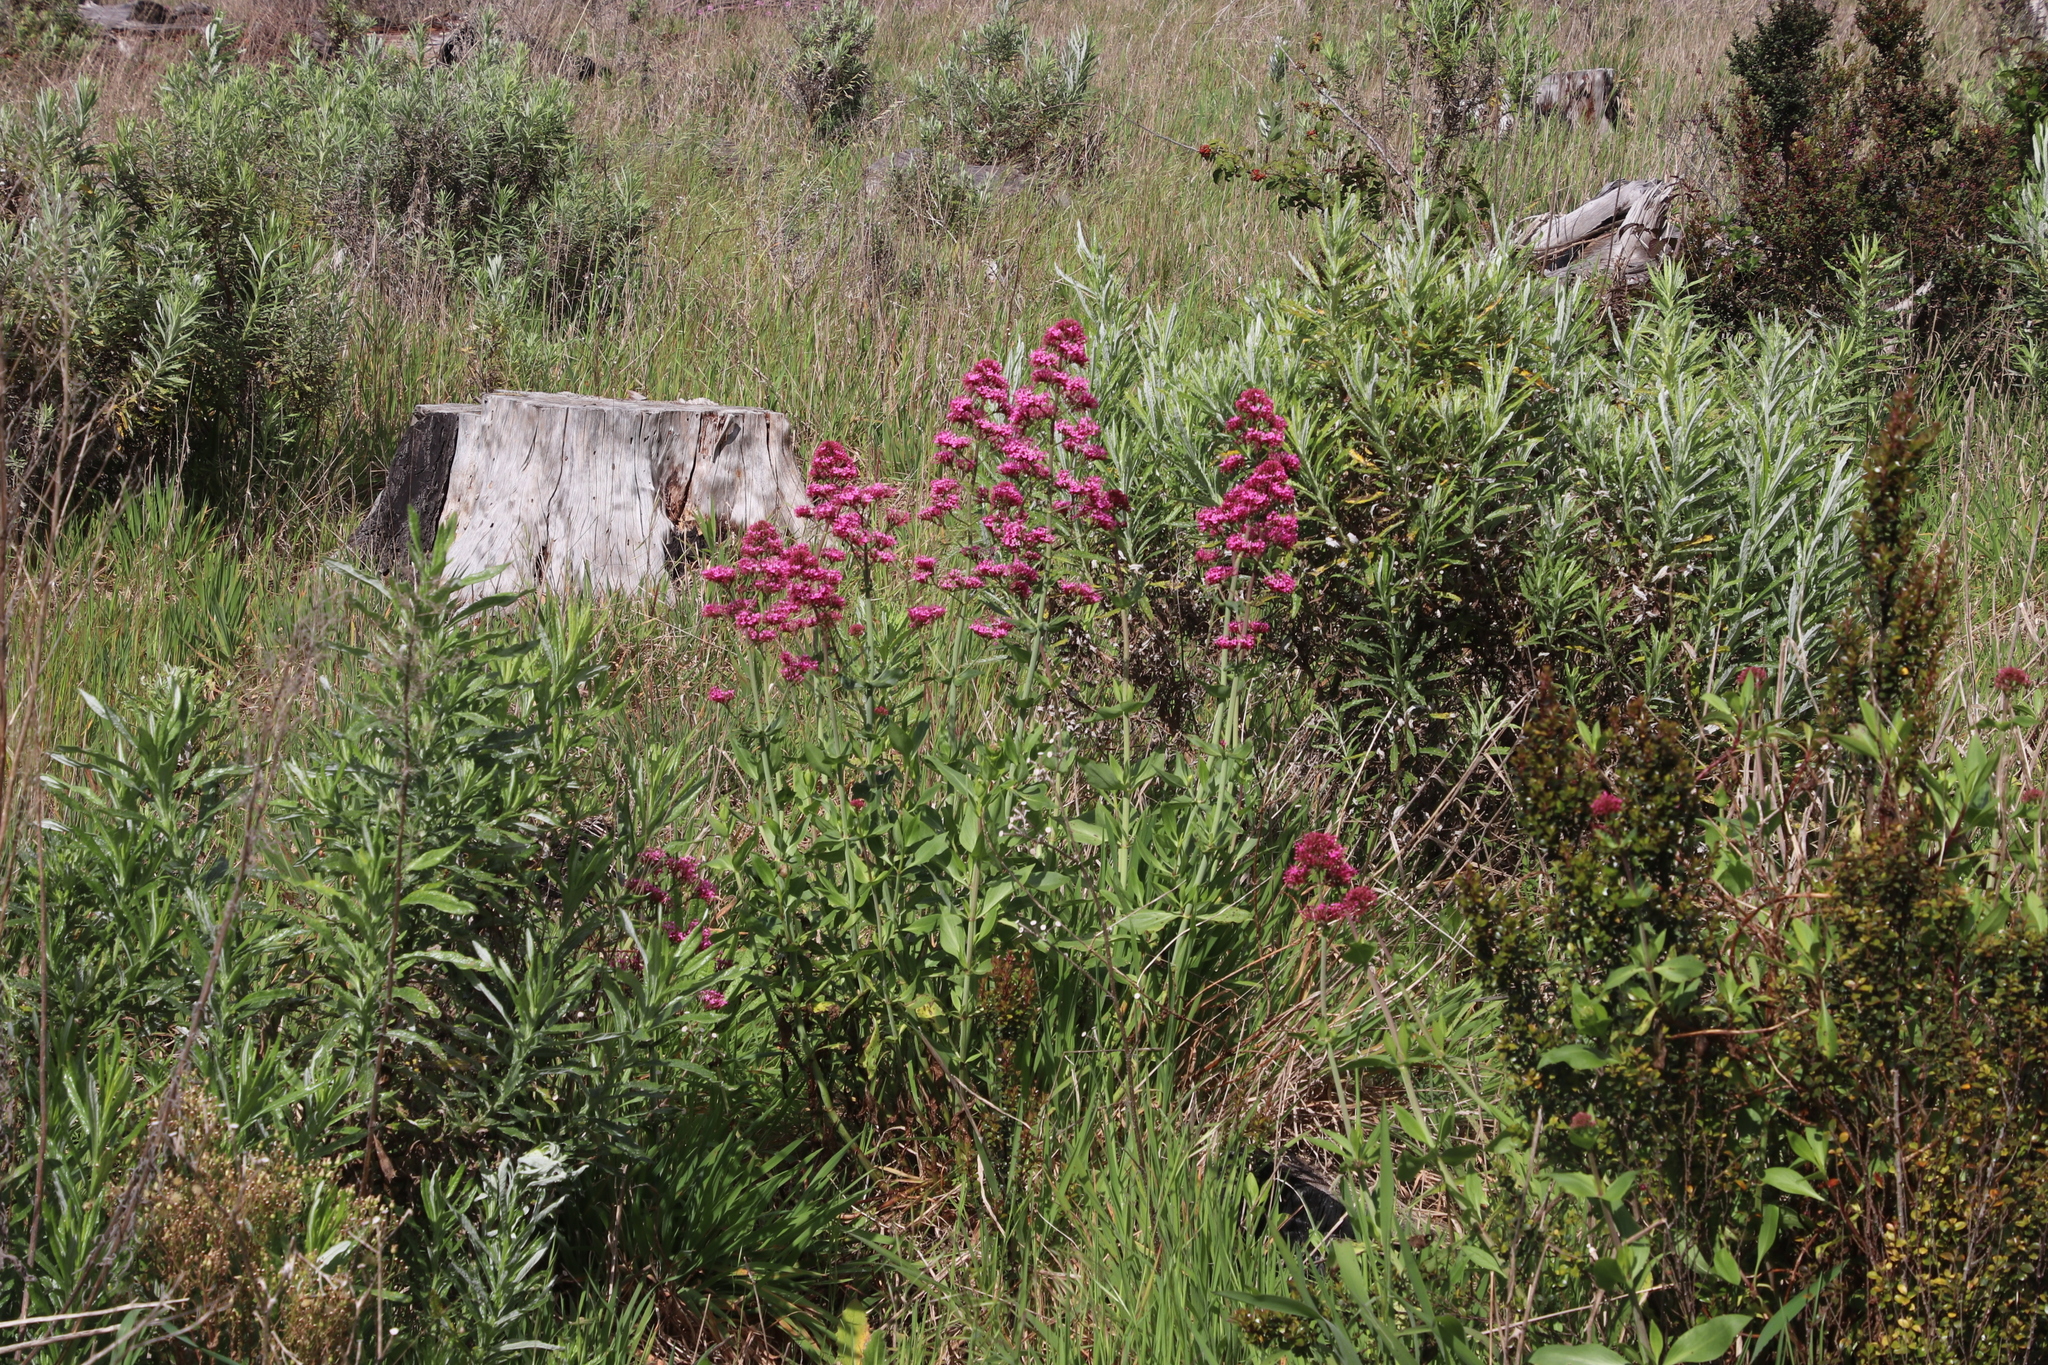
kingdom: Plantae
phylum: Tracheophyta
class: Magnoliopsida
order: Dipsacales
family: Caprifoliaceae
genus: Centranthus
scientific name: Centranthus ruber
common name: Red valerian
